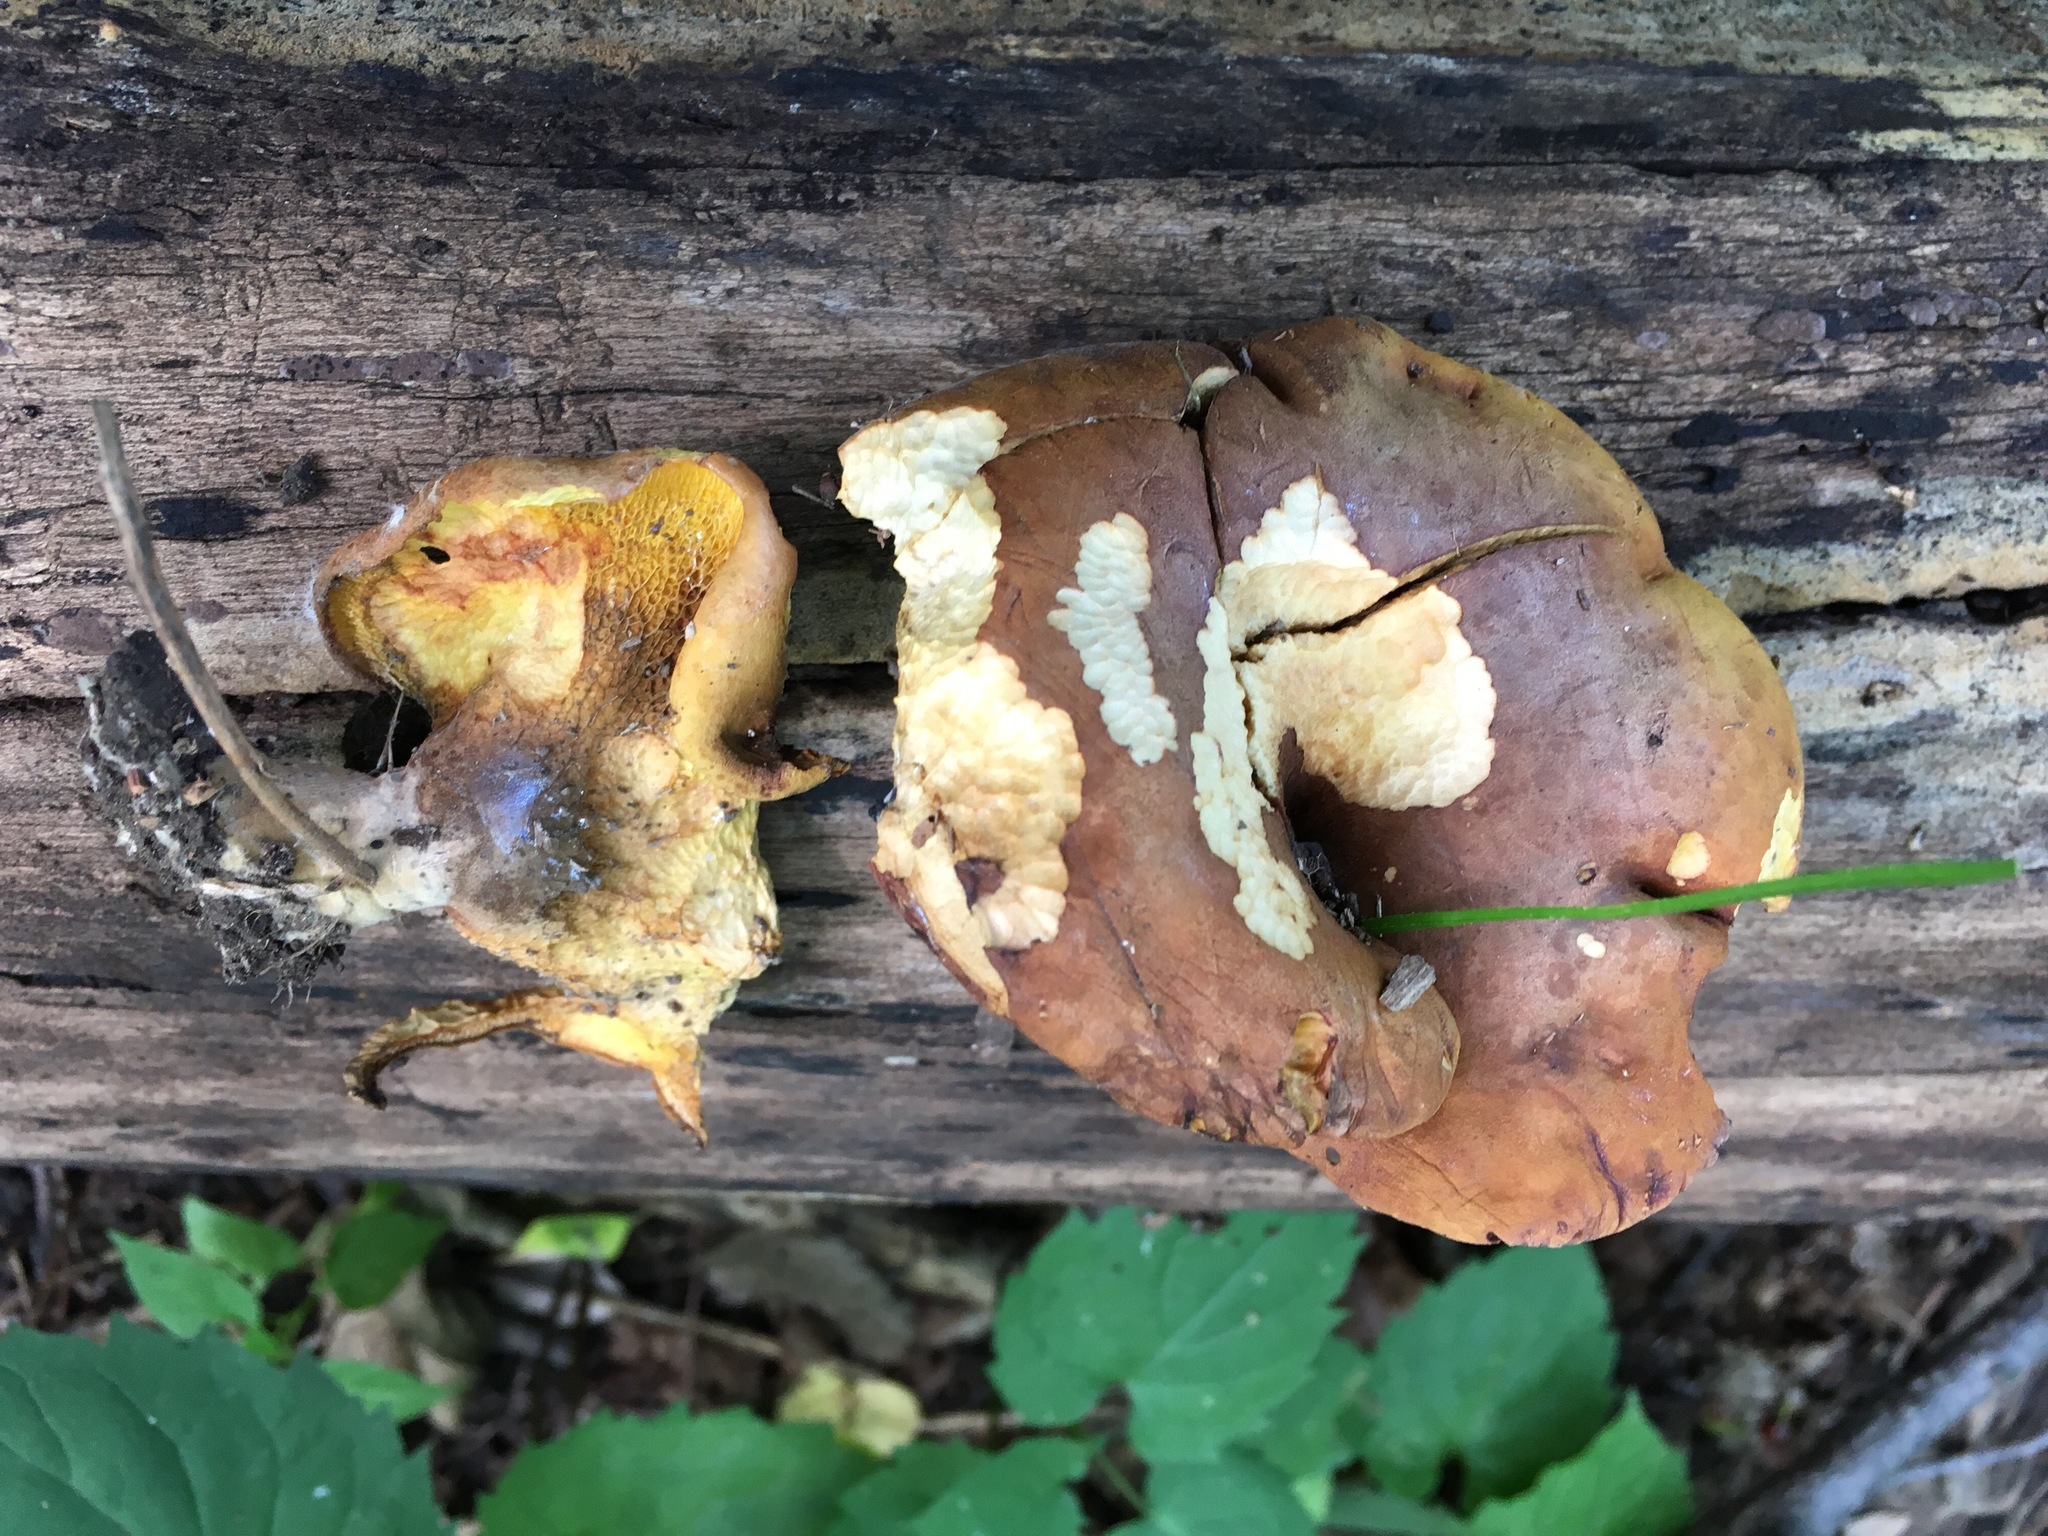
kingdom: Fungi
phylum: Basidiomycota
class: Agaricomycetes
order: Boletales
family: Boletinellaceae
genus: Boletinellus
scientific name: Boletinellus merulioides
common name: Ash tree bolete
